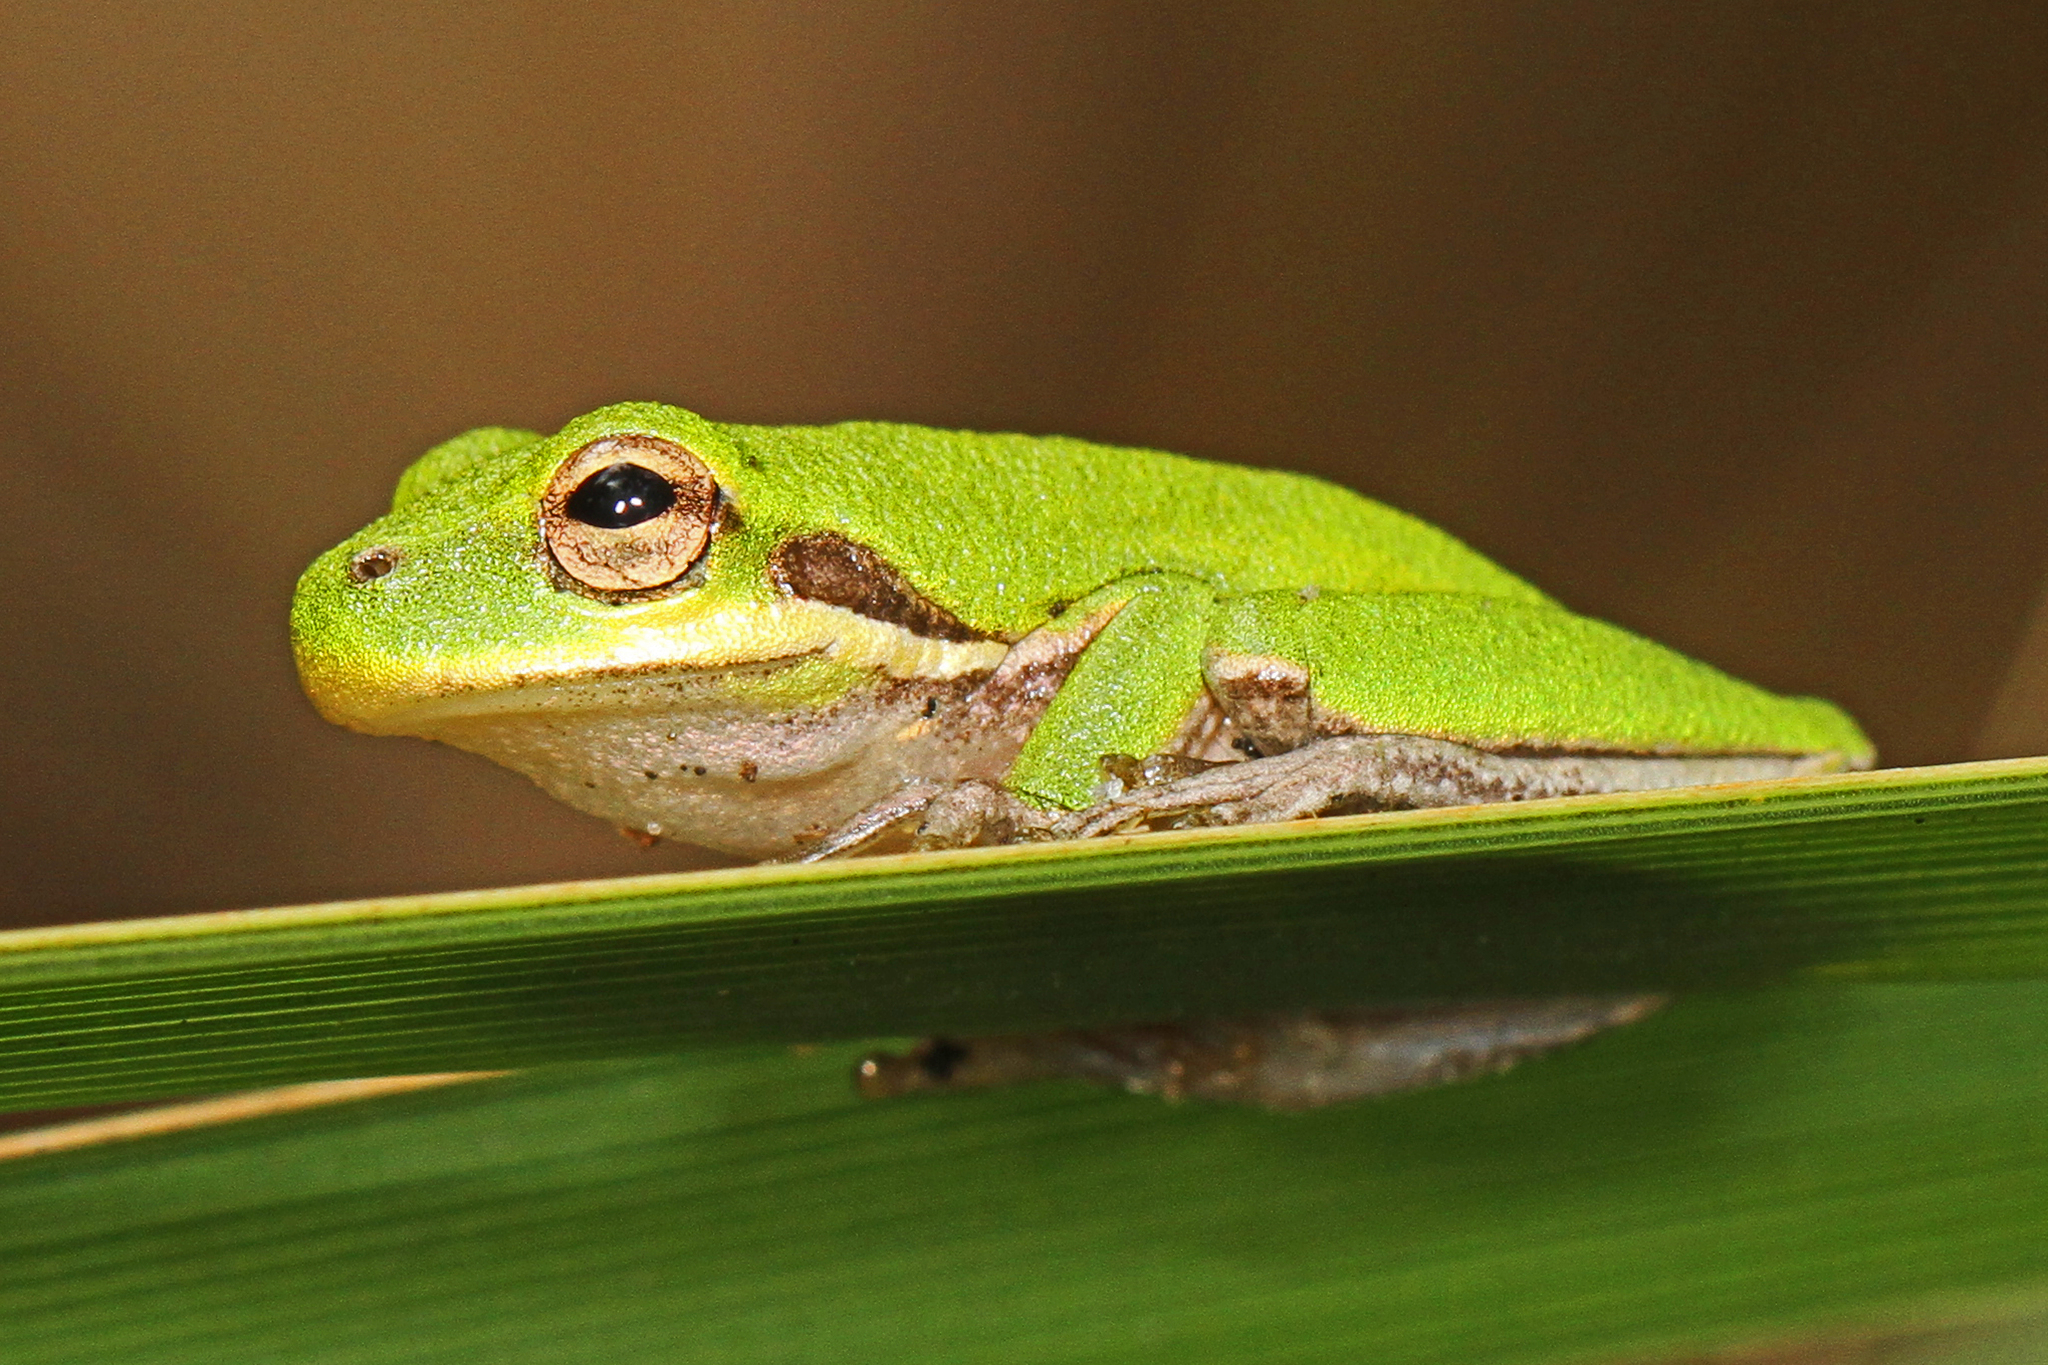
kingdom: Animalia
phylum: Chordata
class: Amphibia
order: Anura
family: Hylidae
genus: Dryophytes
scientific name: Dryophytes squirellus
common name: Squirrel treefrog
